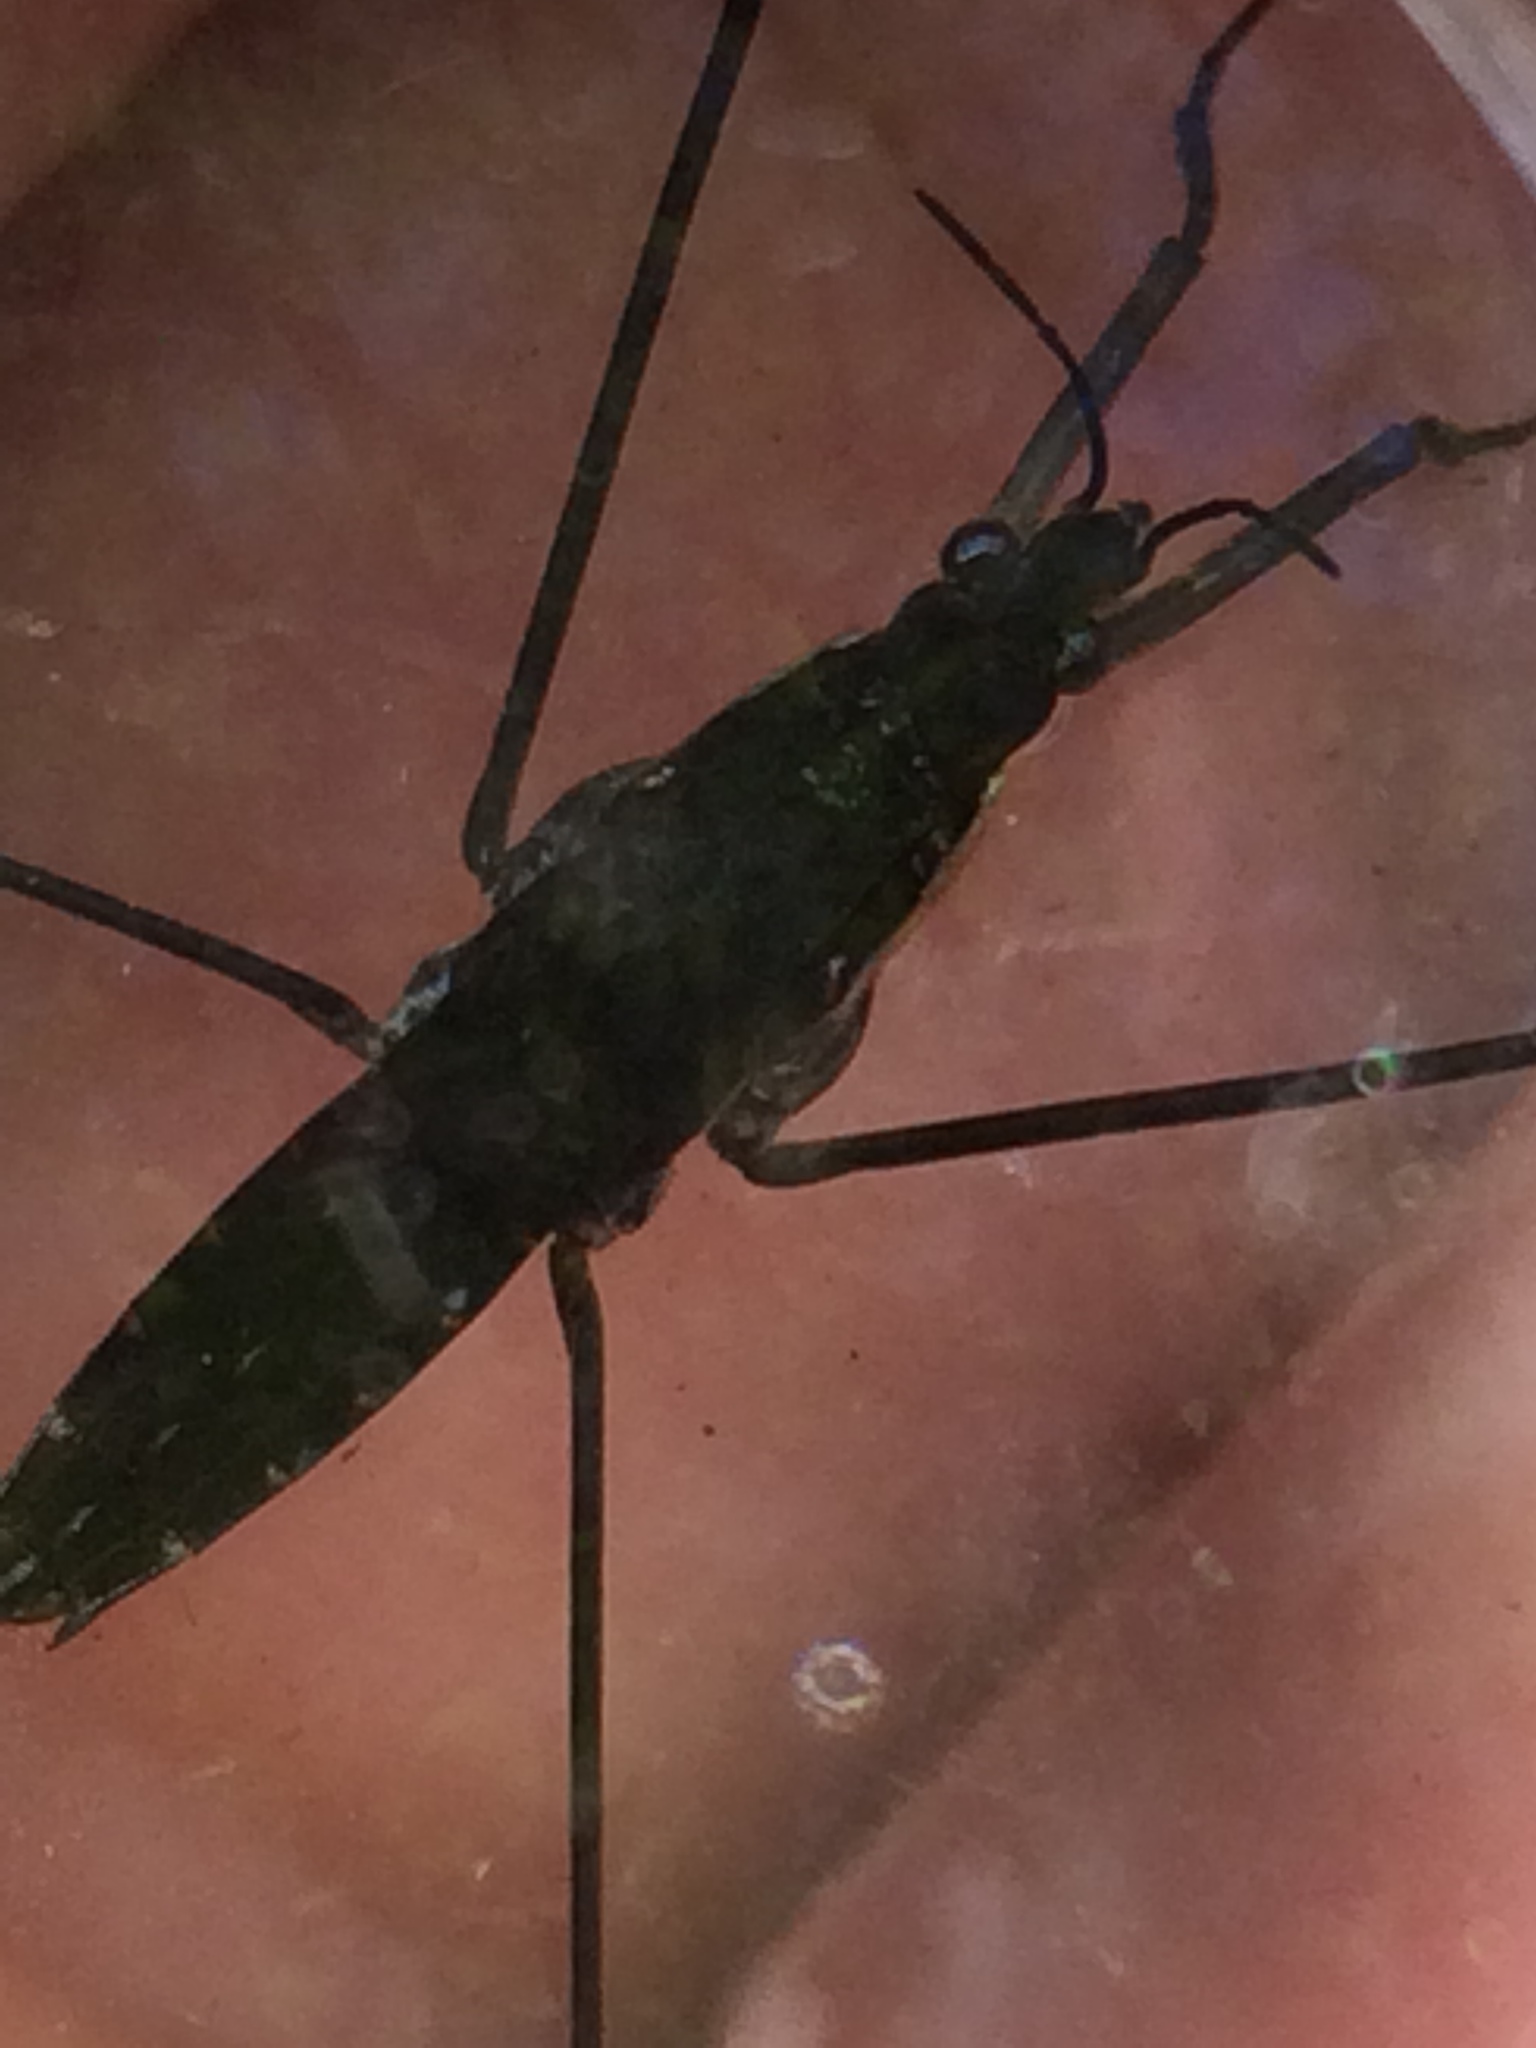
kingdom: Animalia
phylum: Arthropoda
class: Insecta
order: Hemiptera
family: Gerridae
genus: Aquarius
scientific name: Aquarius remigis
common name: Common water strider
